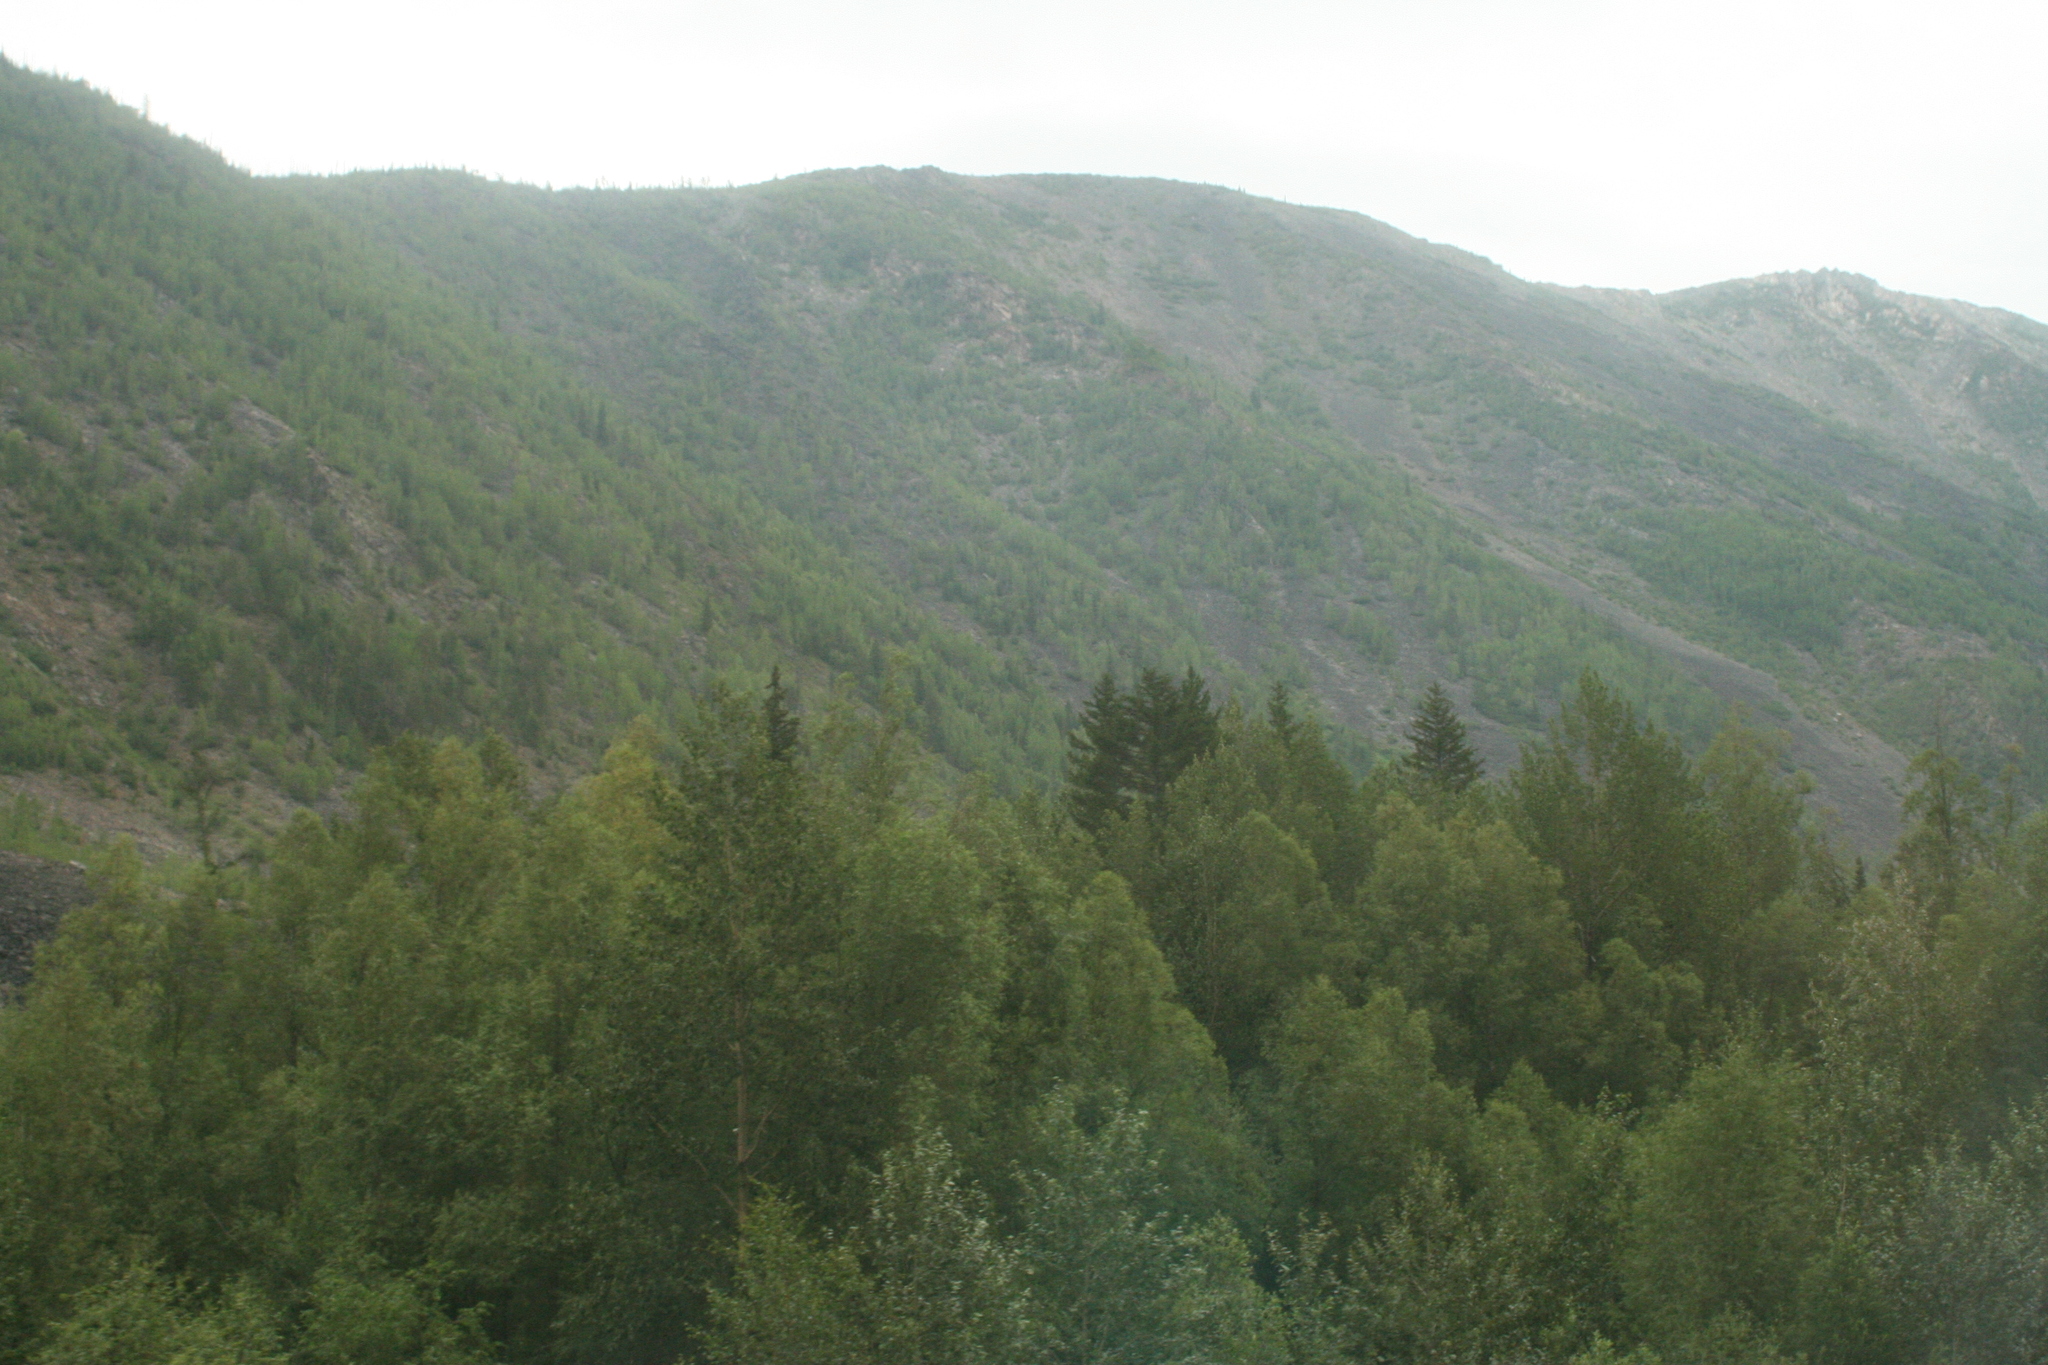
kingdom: Plantae
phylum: Tracheophyta
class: Pinopsida
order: Pinales
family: Pinaceae
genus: Pinus
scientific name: Pinus sibirica
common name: Siberian pine
